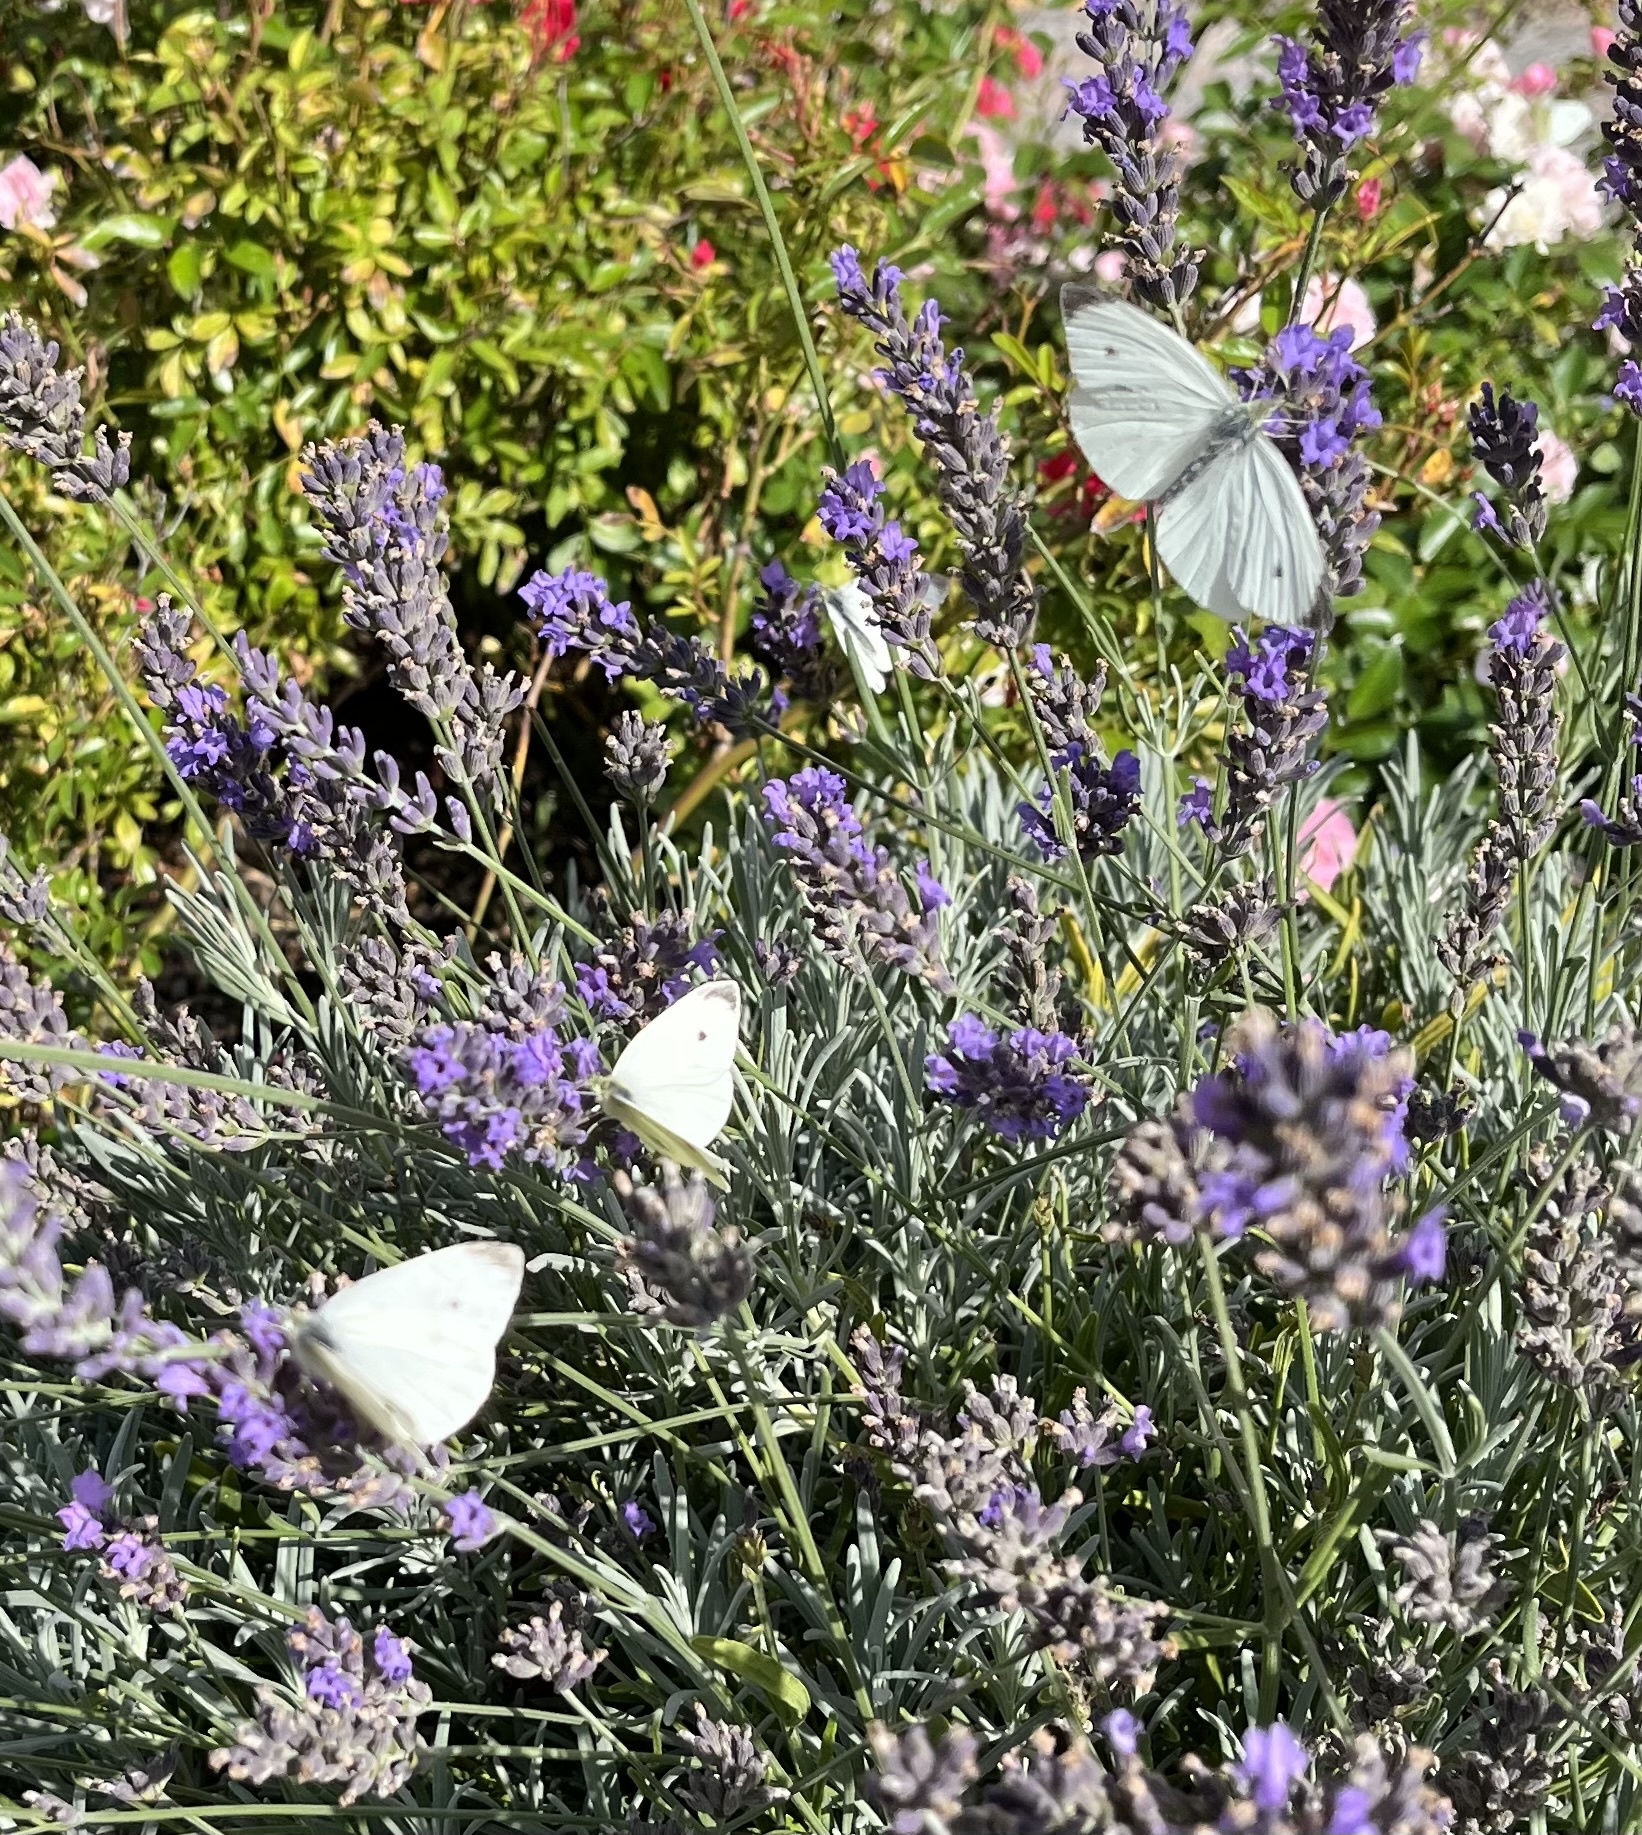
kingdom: Animalia
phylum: Arthropoda
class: Insecta
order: Lepidoptera
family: Pieridae
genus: Pieris
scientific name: Pieris rapae
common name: Small white
